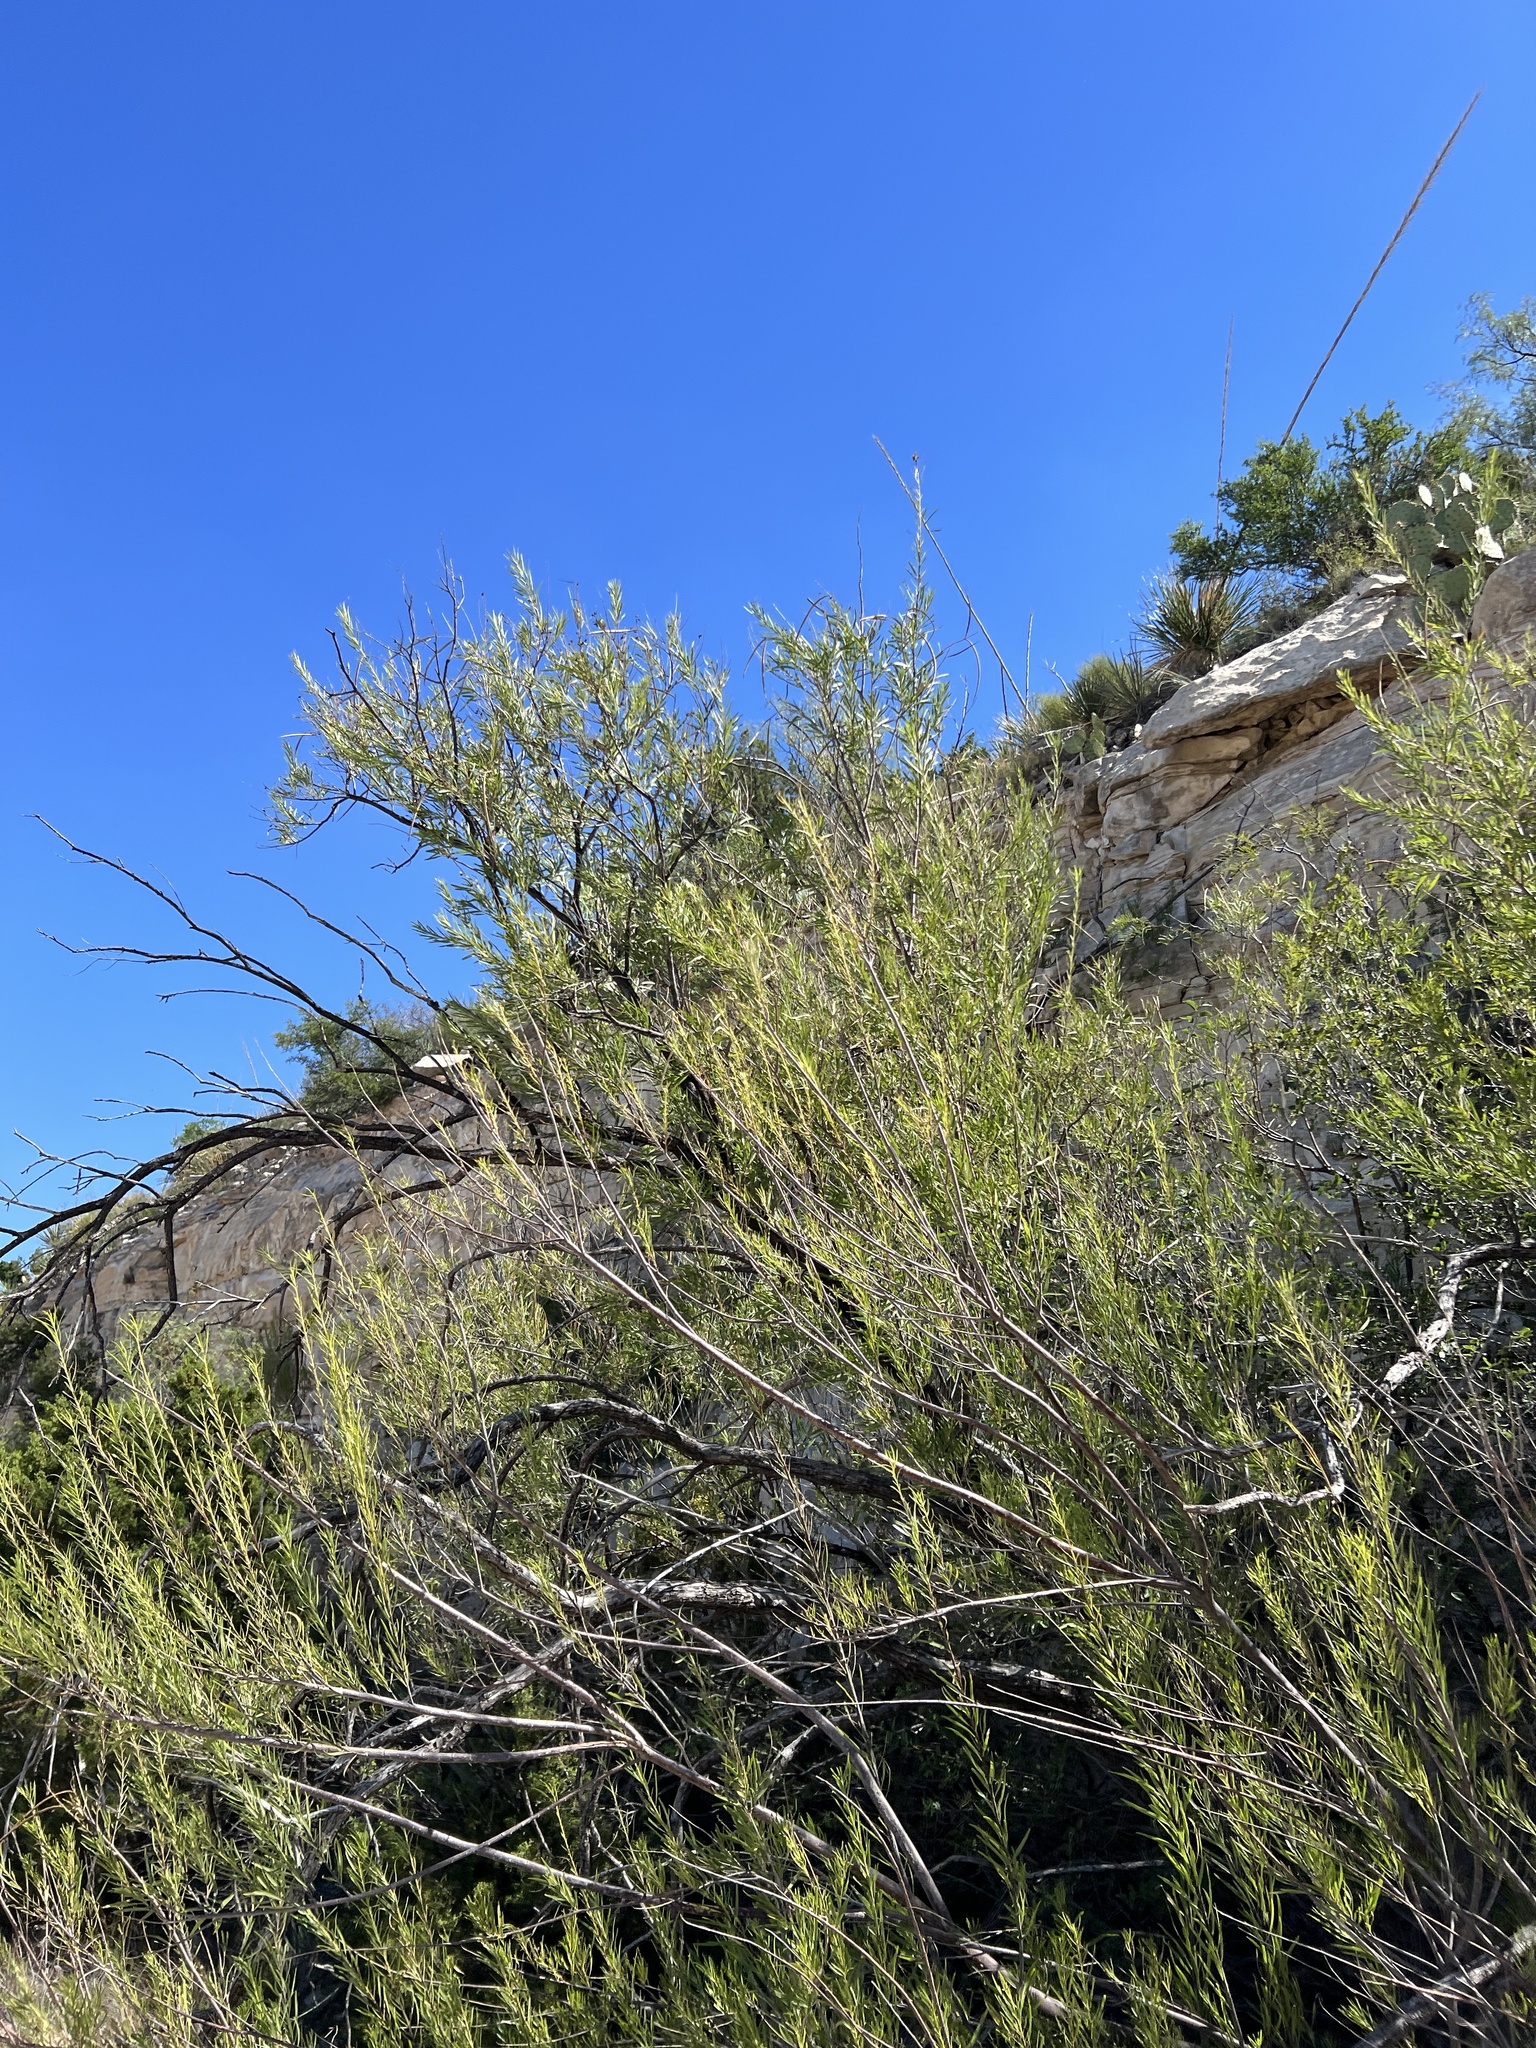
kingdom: Plantae
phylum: Tracheophyta
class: Magnoliopsida
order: Lamiales
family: Bignoniaceae
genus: Chilopsis
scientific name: Chilopsis linearis
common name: Desert-willow
